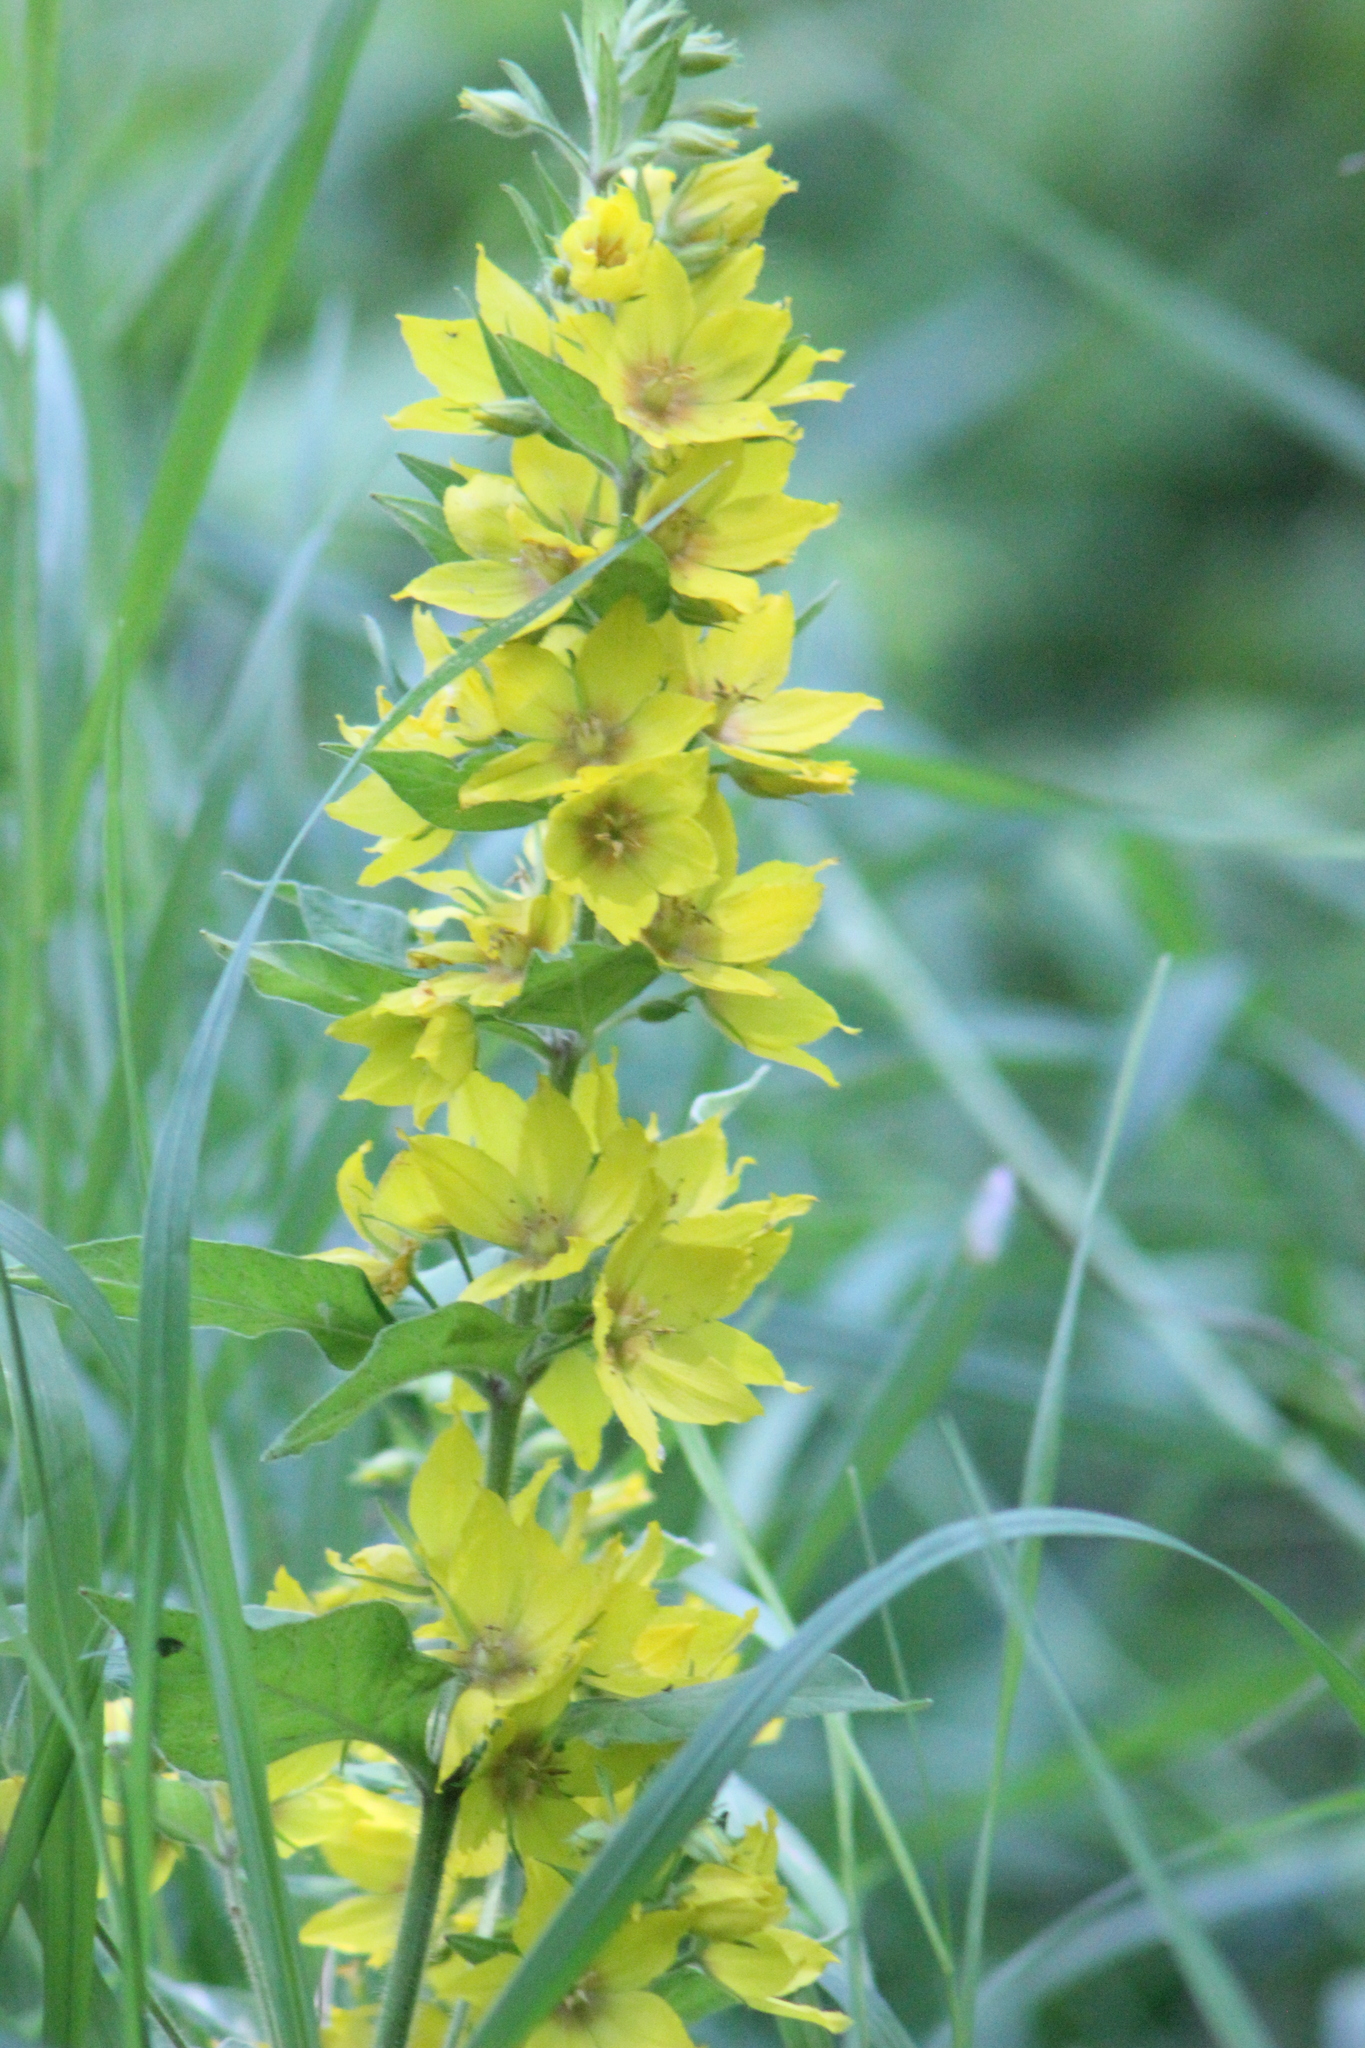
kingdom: Plantae
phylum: Tracheophyta
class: Magnoliopsida
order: Ericales
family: Primulaceae
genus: Lysimachia
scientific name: Lysimachia punctata
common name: Dotted loosestrife
